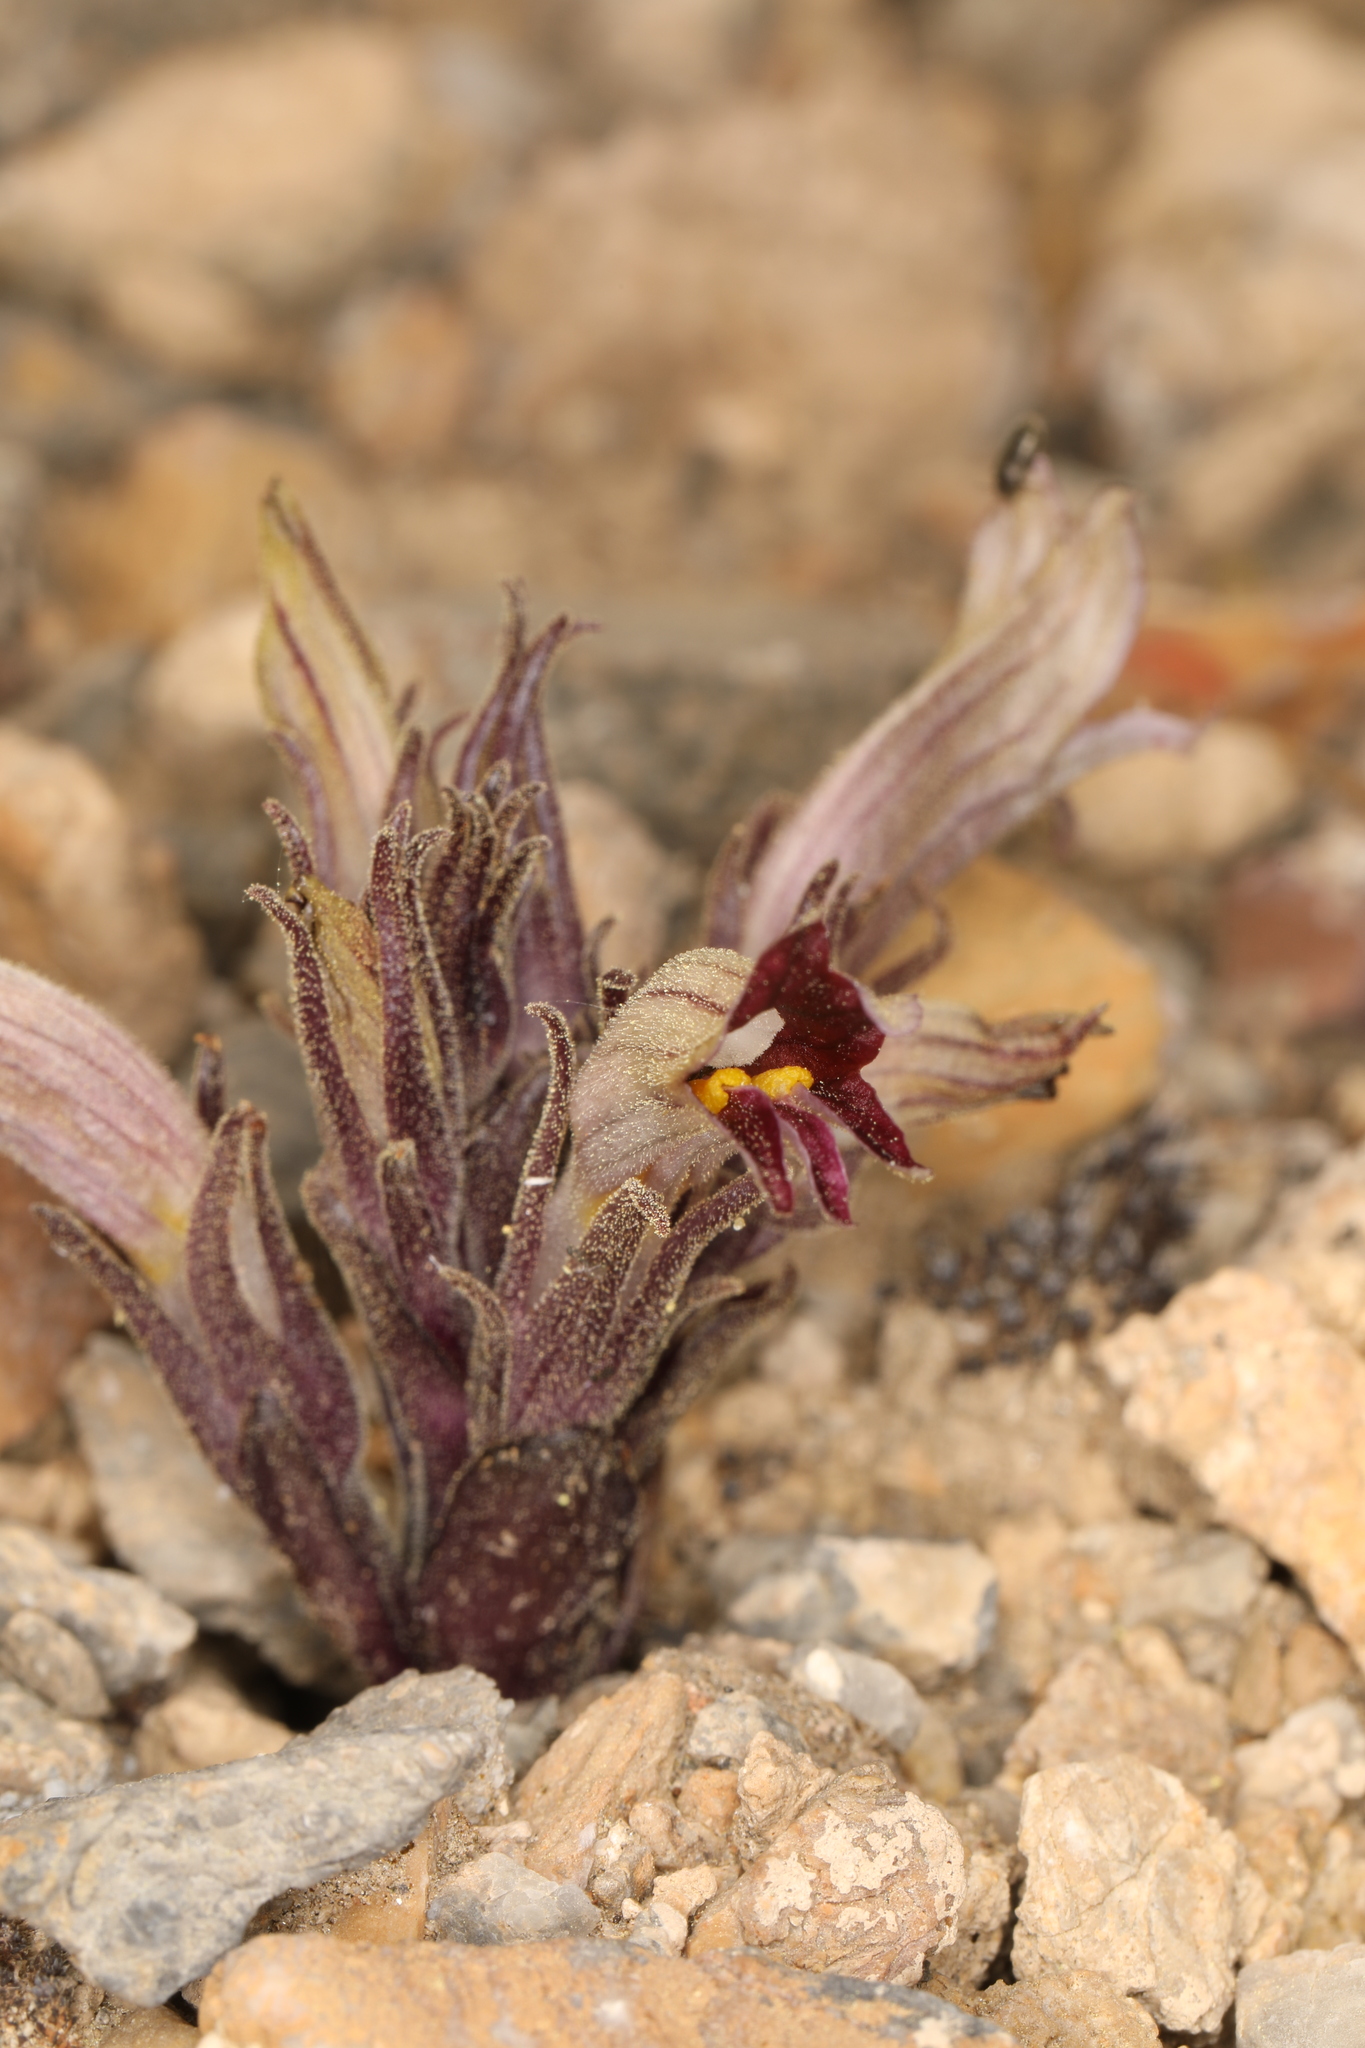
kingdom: Plantae
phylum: Tracheophyta
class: Magnoliopsida
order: Lamiales
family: Orobanchaceae
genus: Aphyllon
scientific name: Aphyllon corymbosum
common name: Flat-top broomrape
